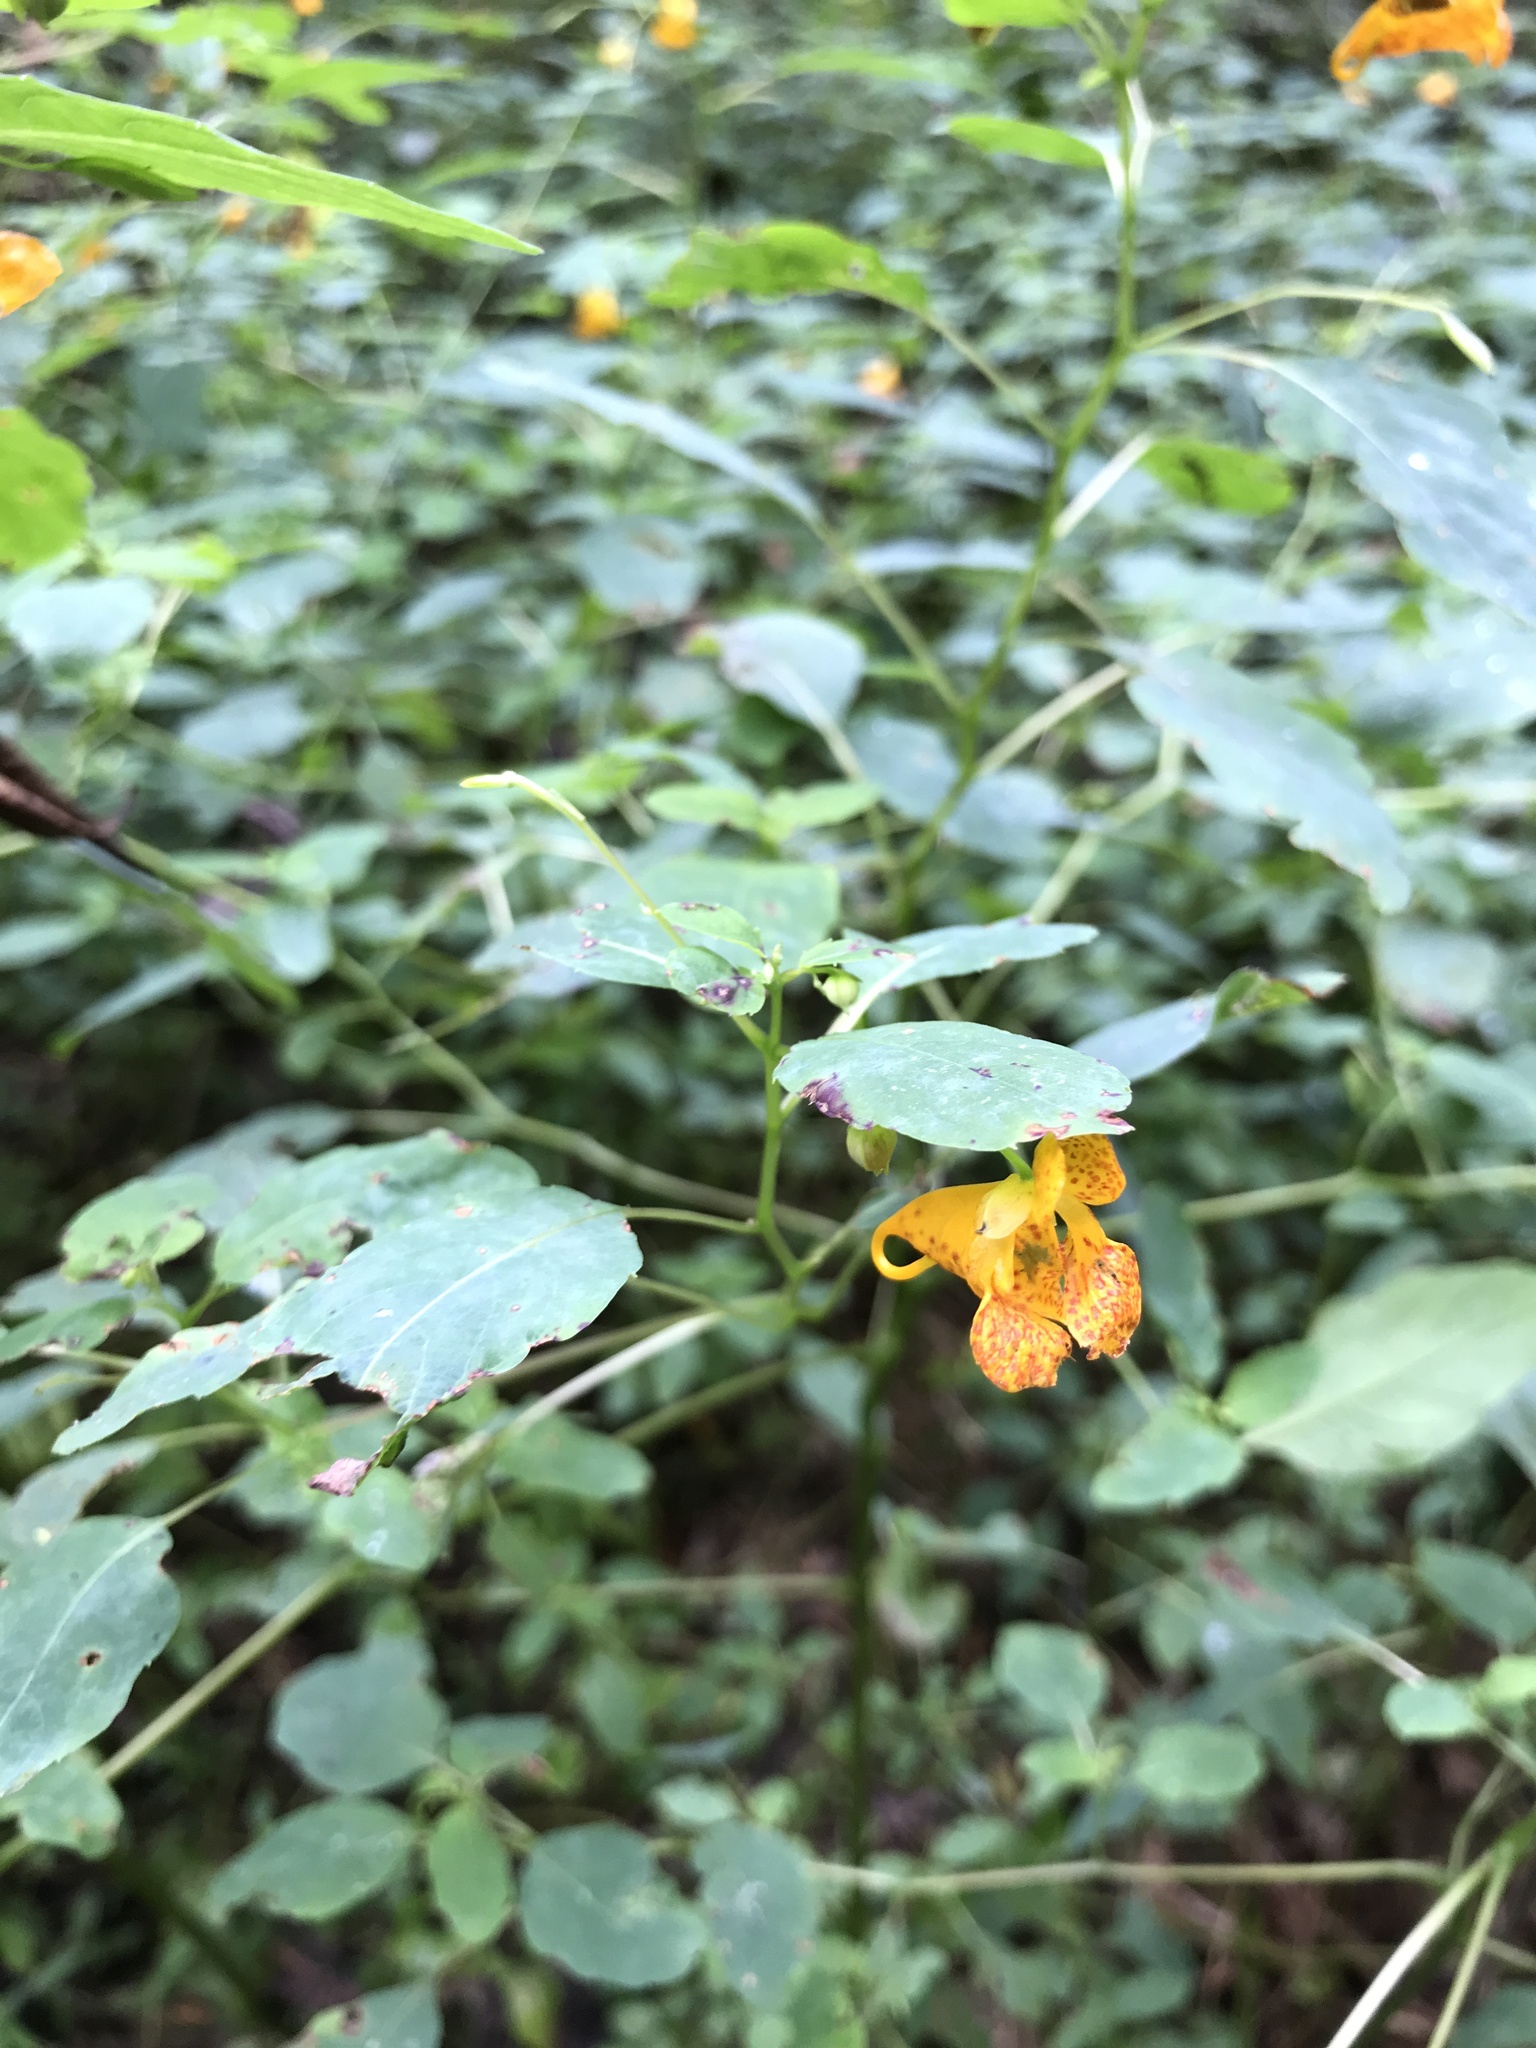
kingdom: Plantae
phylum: Tracheophyta
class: Magnoliopsida
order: Ericales
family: Balsaminaceae
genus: Impatiens
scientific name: Impatiens capensis
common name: Orange balsam
